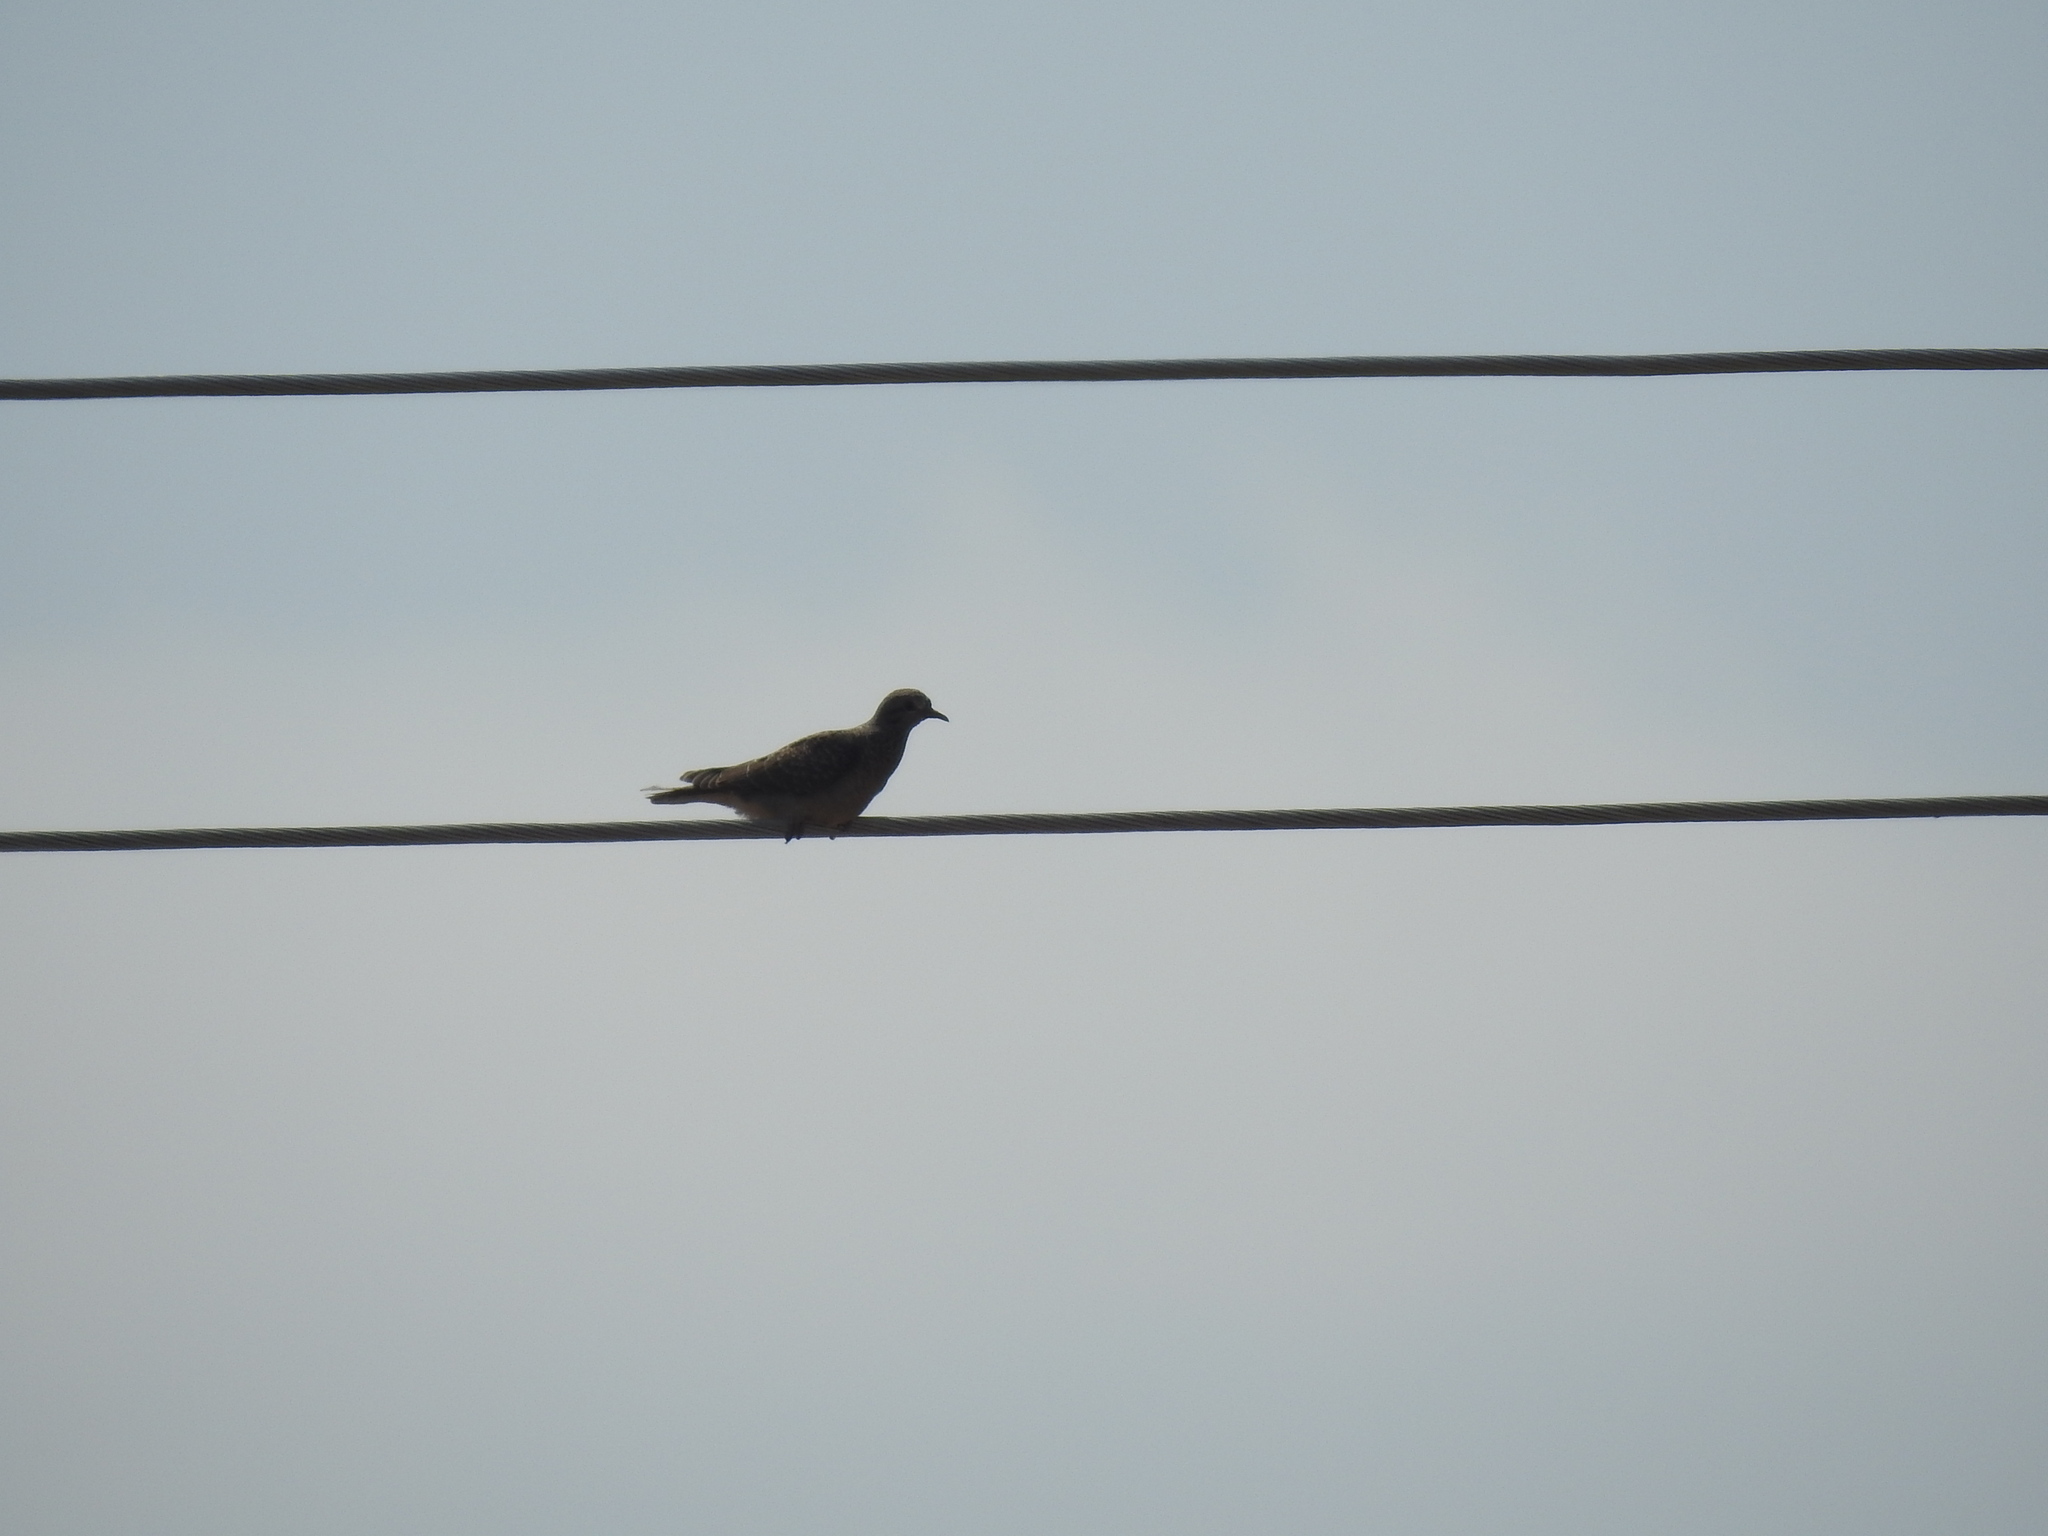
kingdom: Animalia
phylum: Chordata
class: Aves
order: Columbiformes
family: Columbidae
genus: Zenaida
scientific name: Zenaida auriculata
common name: Eared dove
